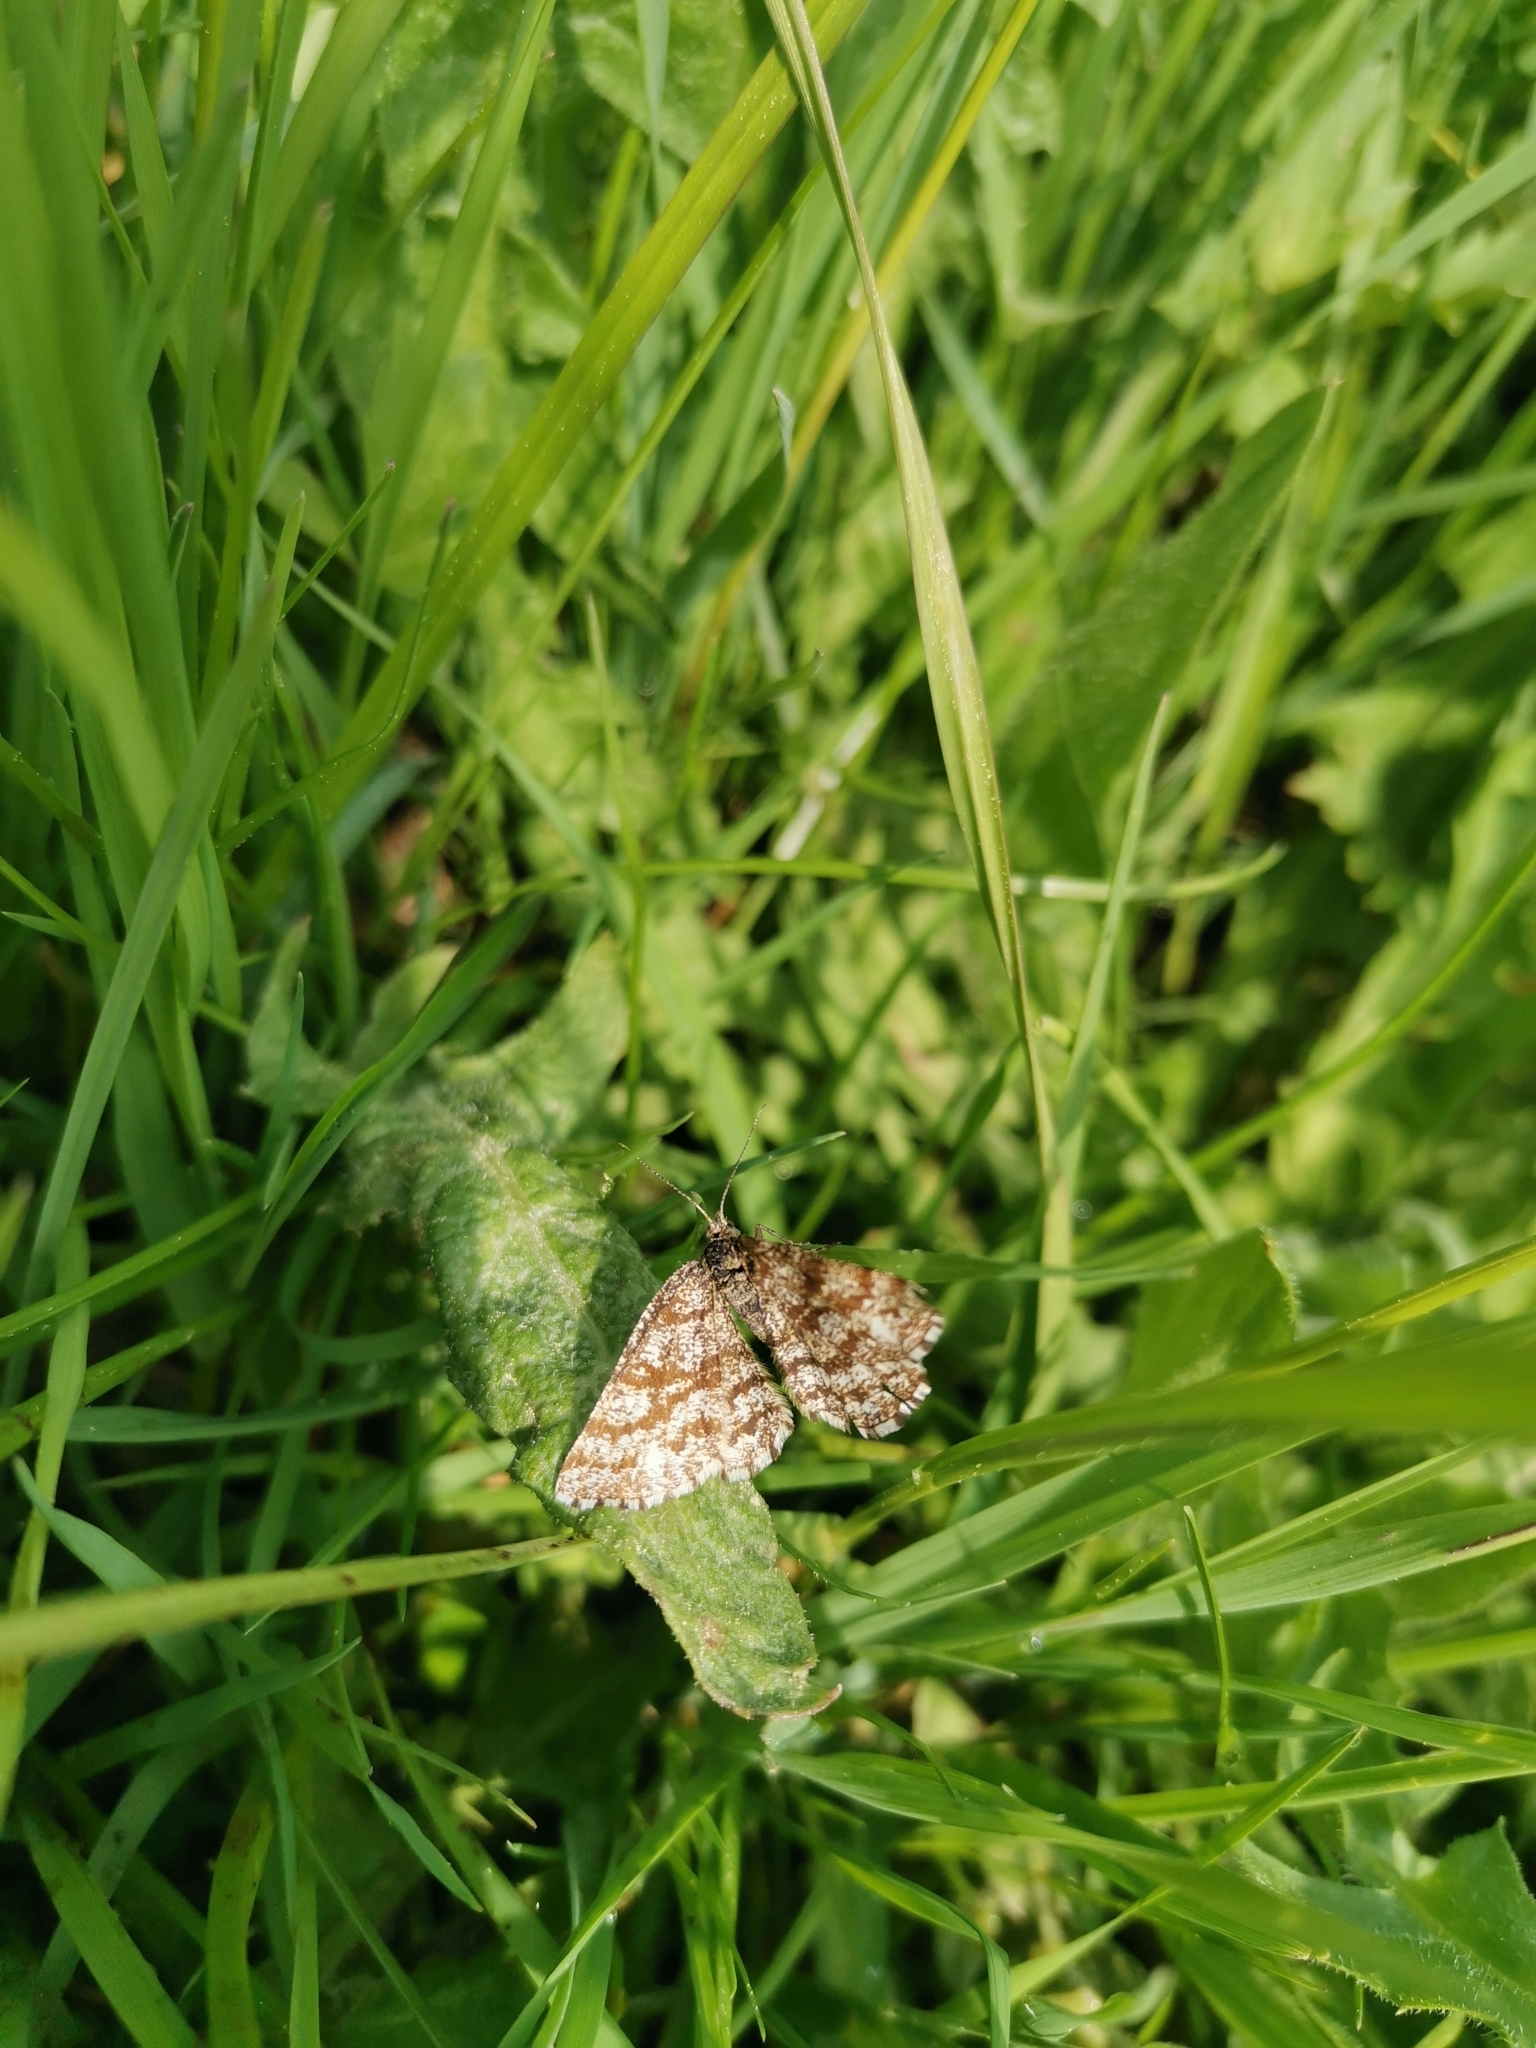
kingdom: Animalia
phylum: Arthropoda
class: Insecta
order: Lepidoptera
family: Geometridae
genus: Ematurga
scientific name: Ematurga atomaria
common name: Common heath
